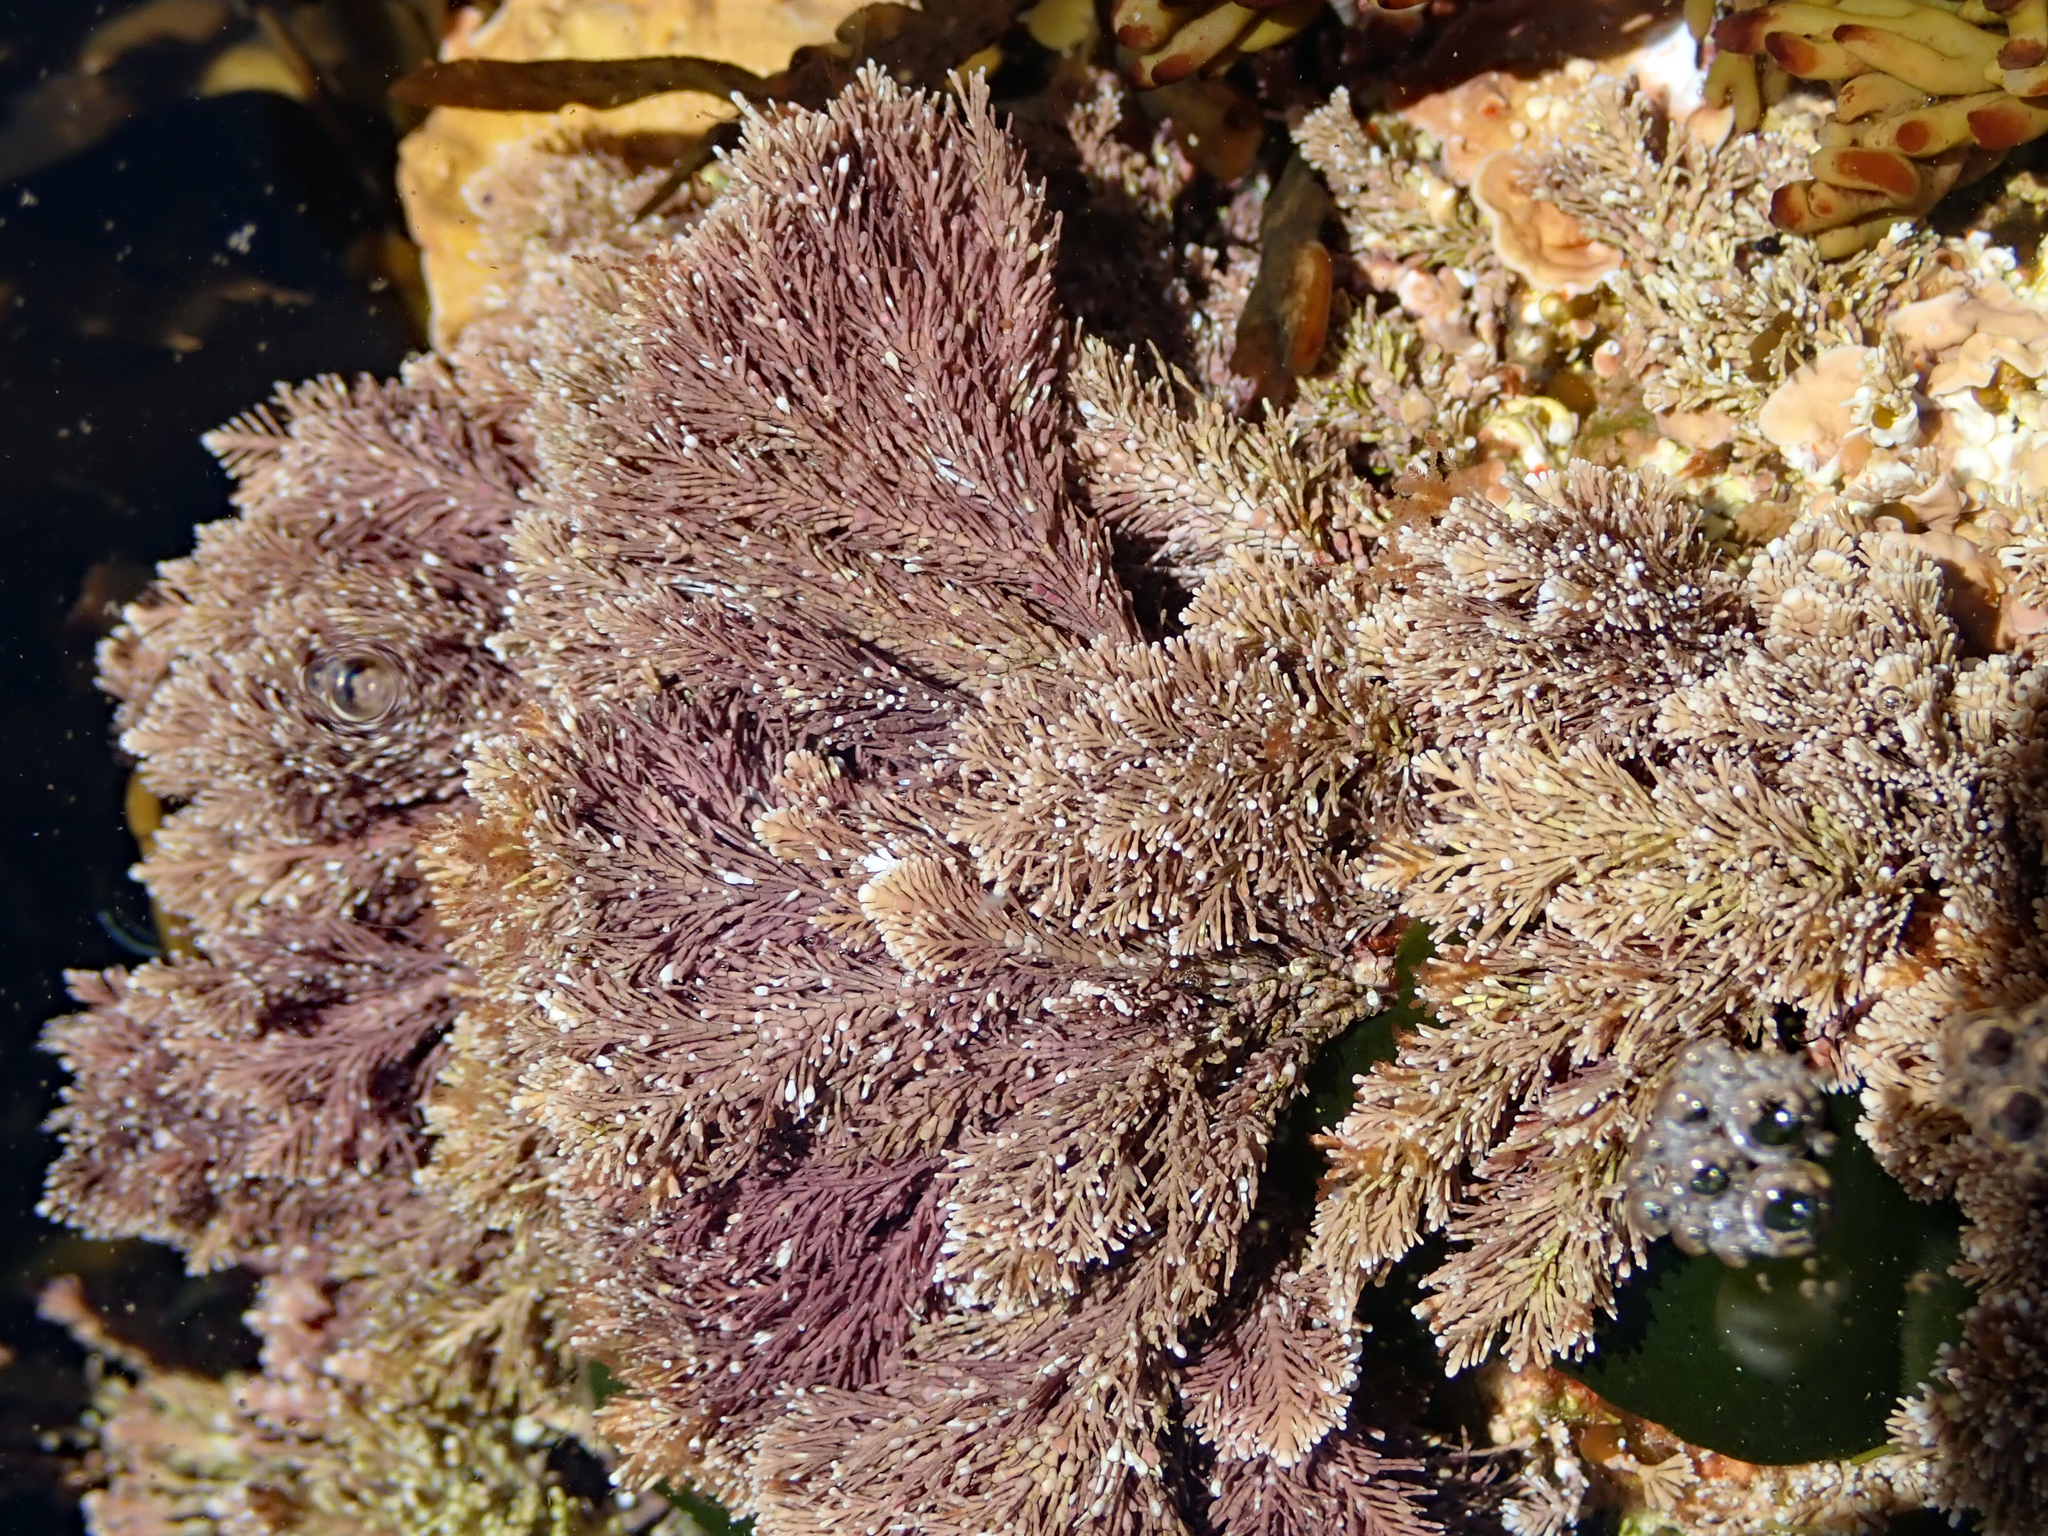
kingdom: Plantae
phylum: Rhodophyta
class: Florideophyceae
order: Corallinales
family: Corallinaceae
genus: Jania
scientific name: Jania rosea
